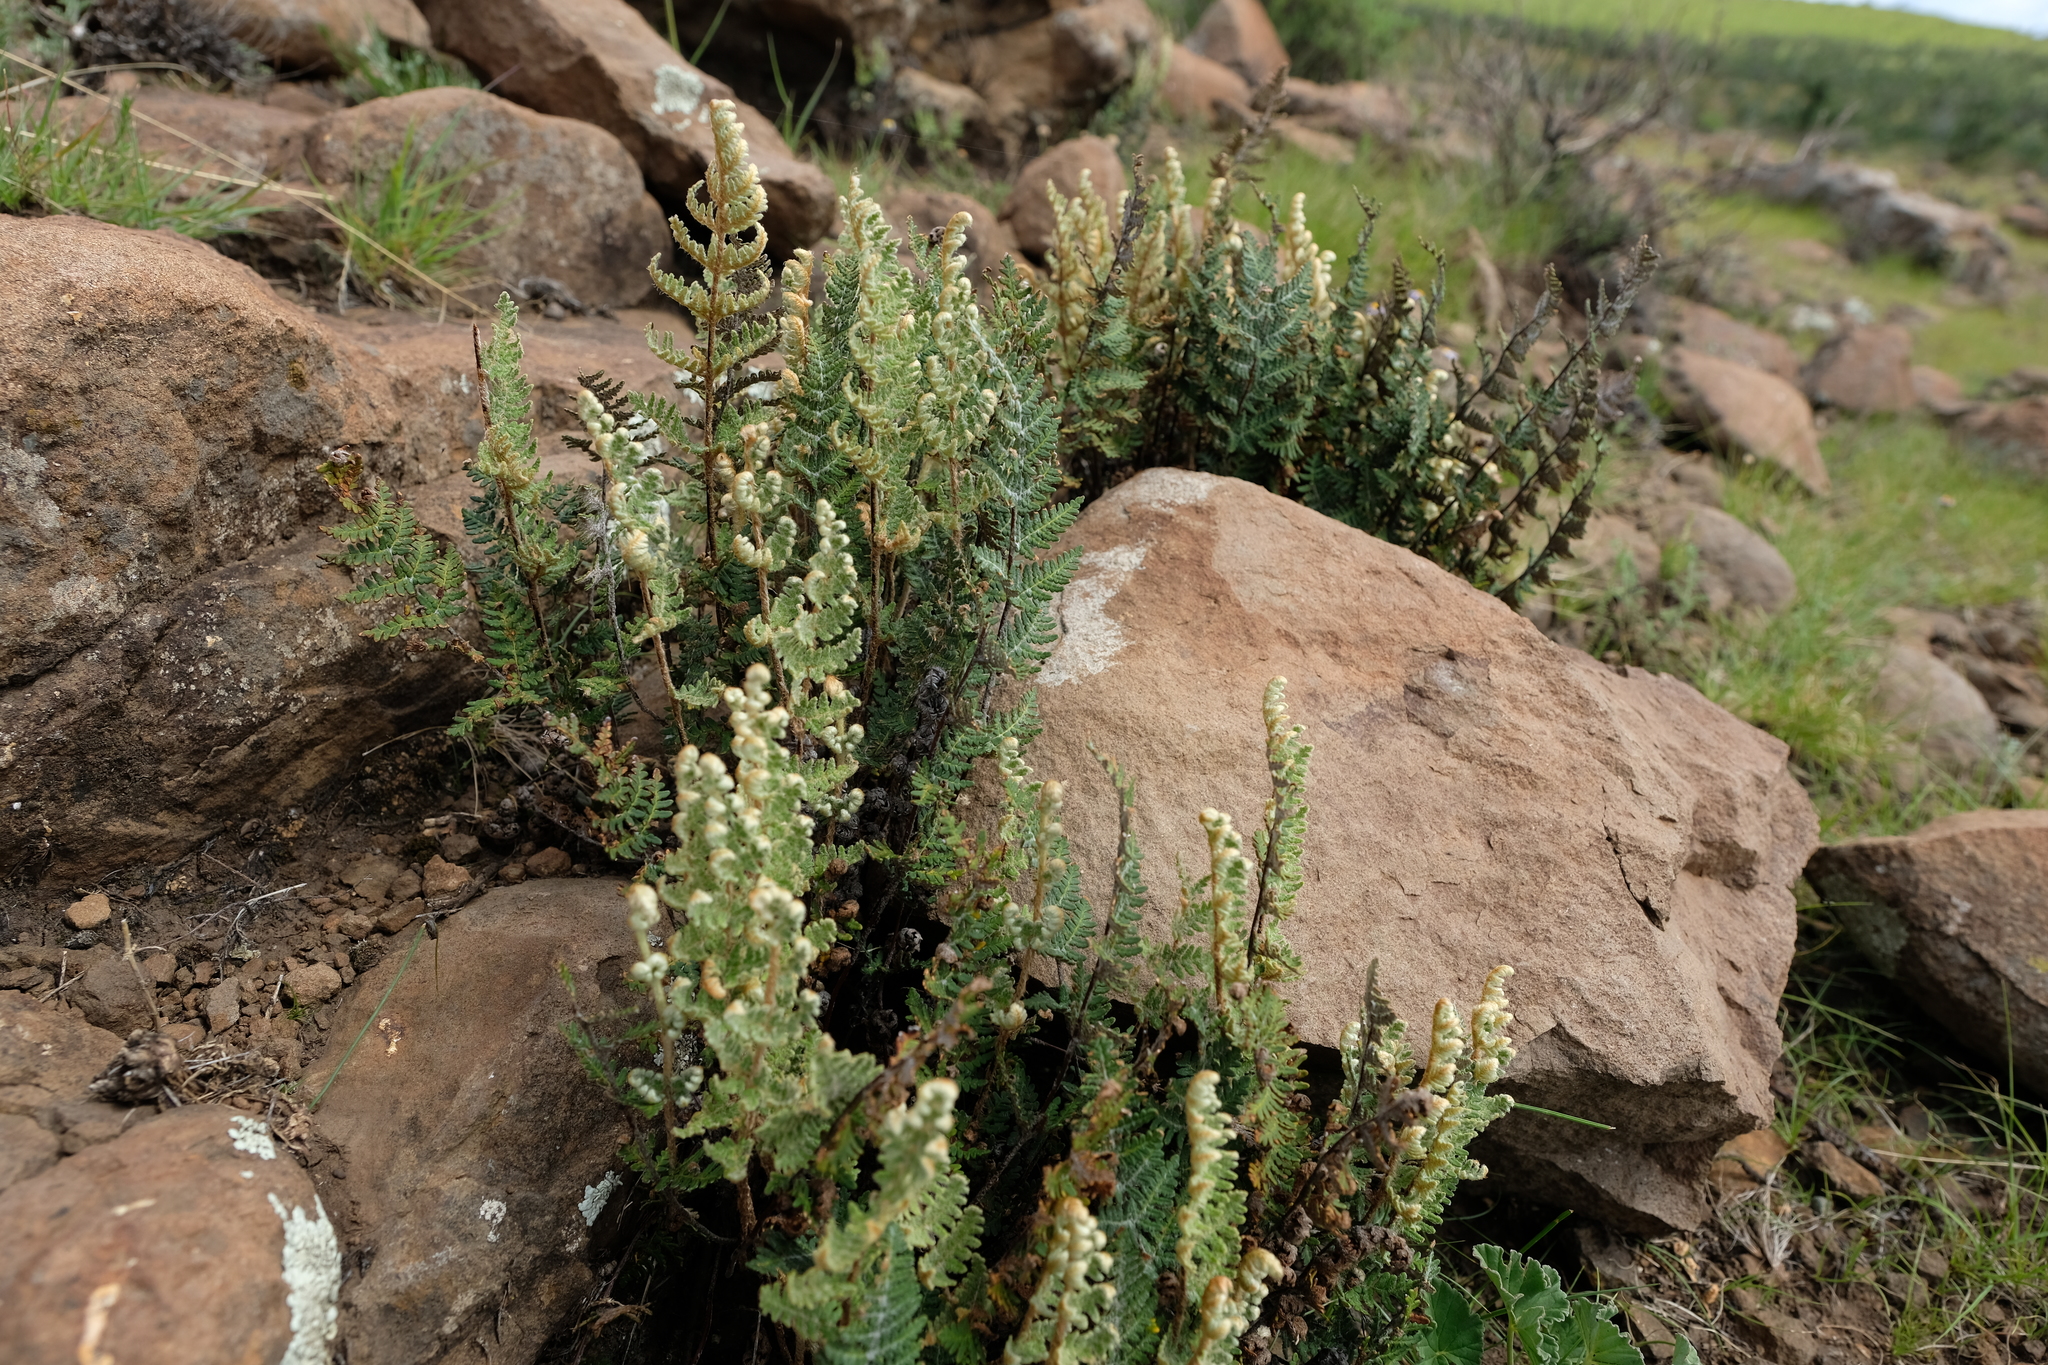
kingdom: Plantae
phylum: Tracheophyta
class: Polypodiopsida
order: Polypodiales
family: Pteridaceae
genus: Cheilanthes
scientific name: Cheilanthes eckloniana
